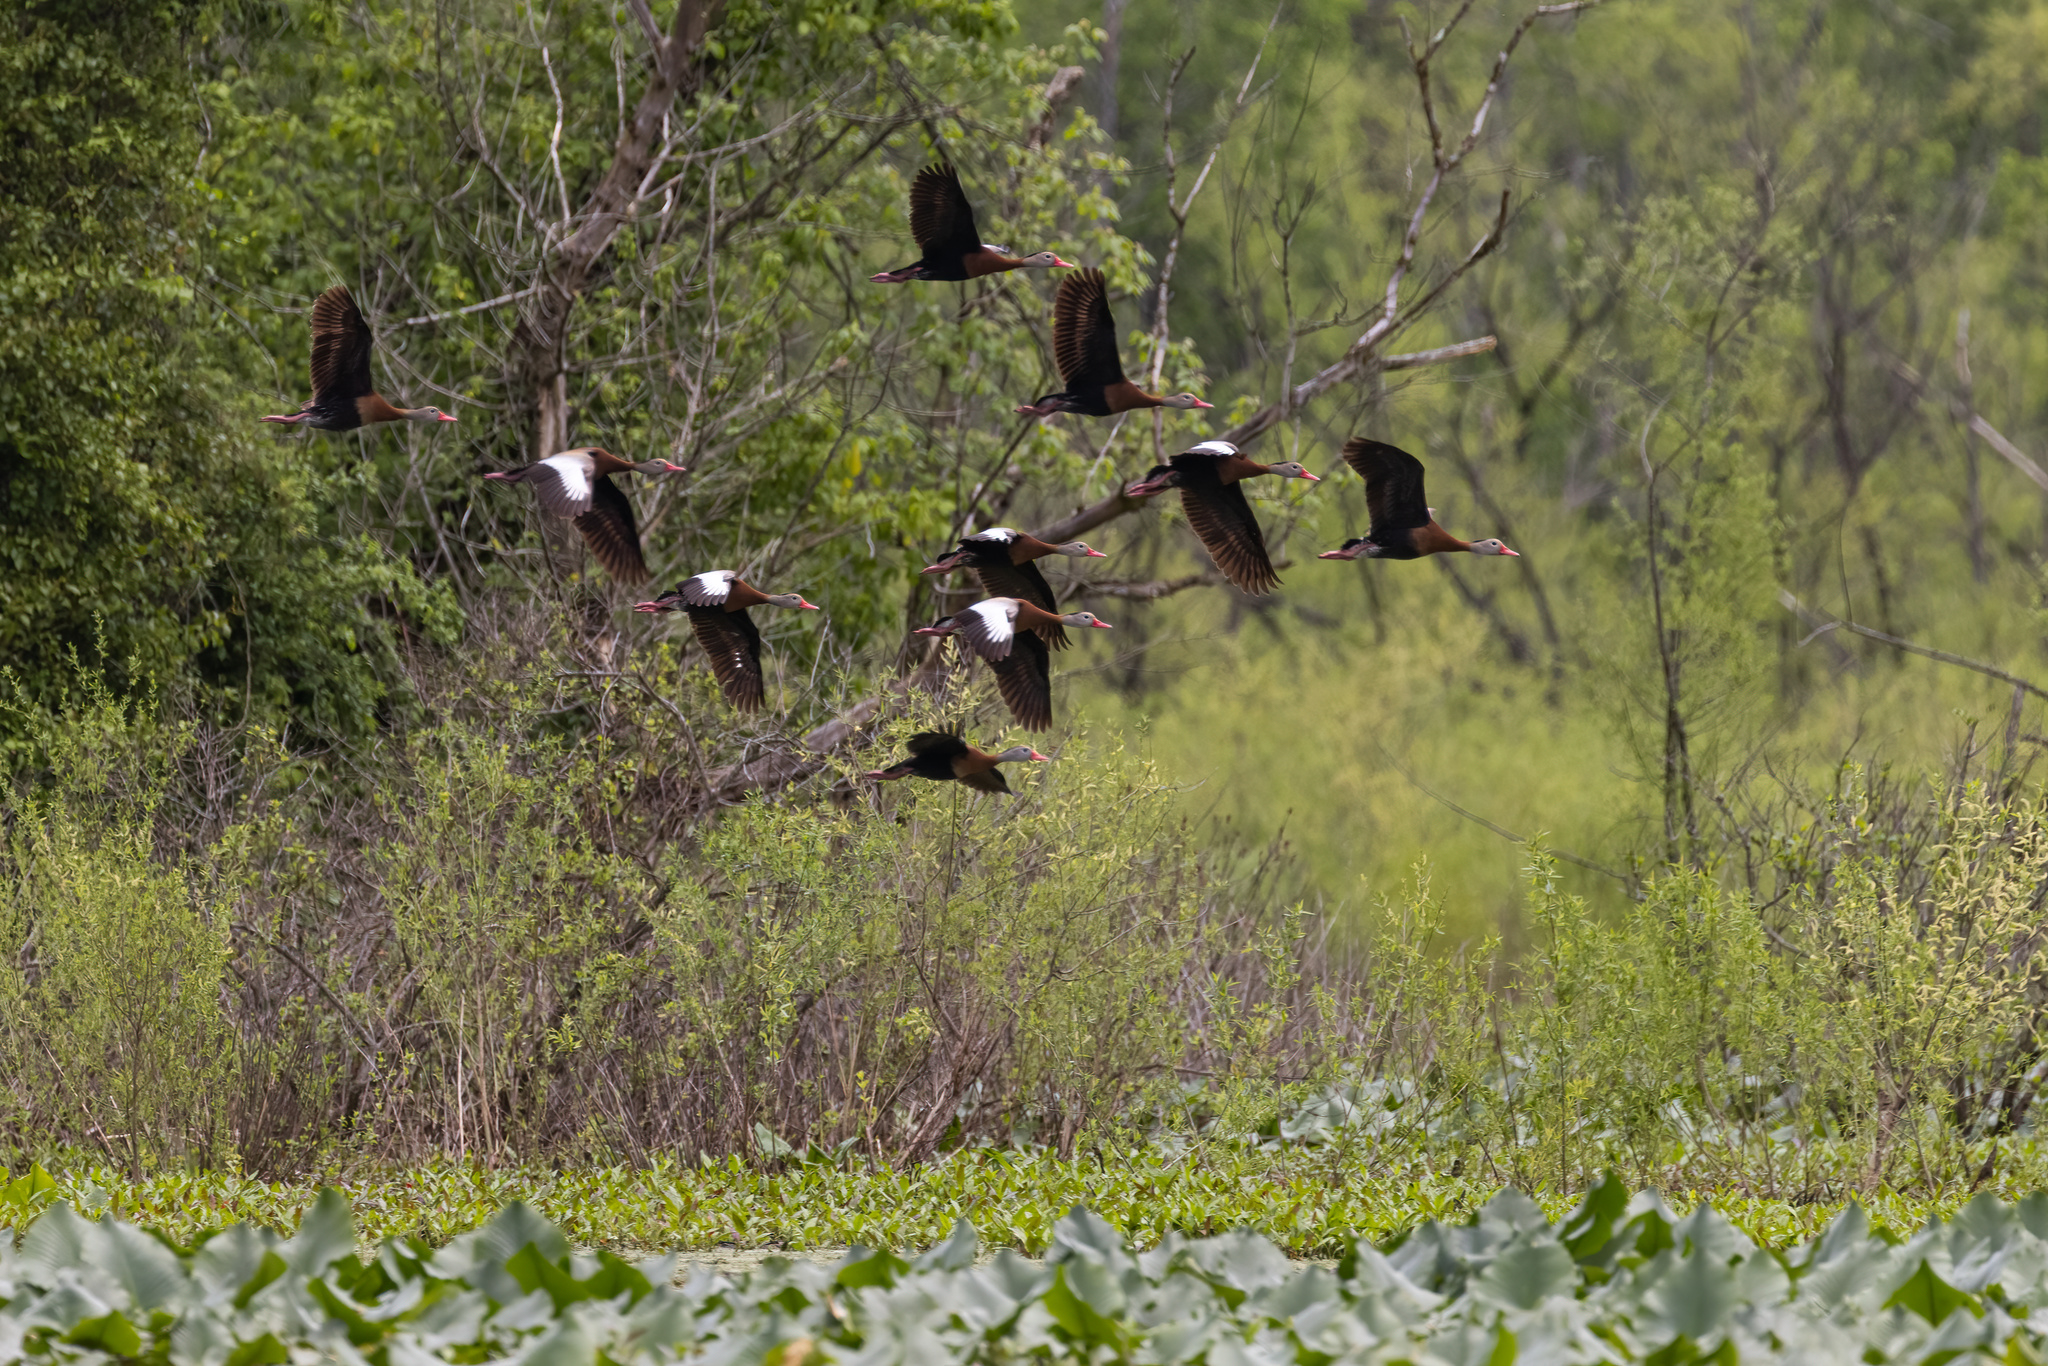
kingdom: Animalia
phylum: Chordata
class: Aves
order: Anseriformes
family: Anatidae
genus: Dendrocygna
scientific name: Dendrocygna autumnalis
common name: Black-bellied whistling duck
